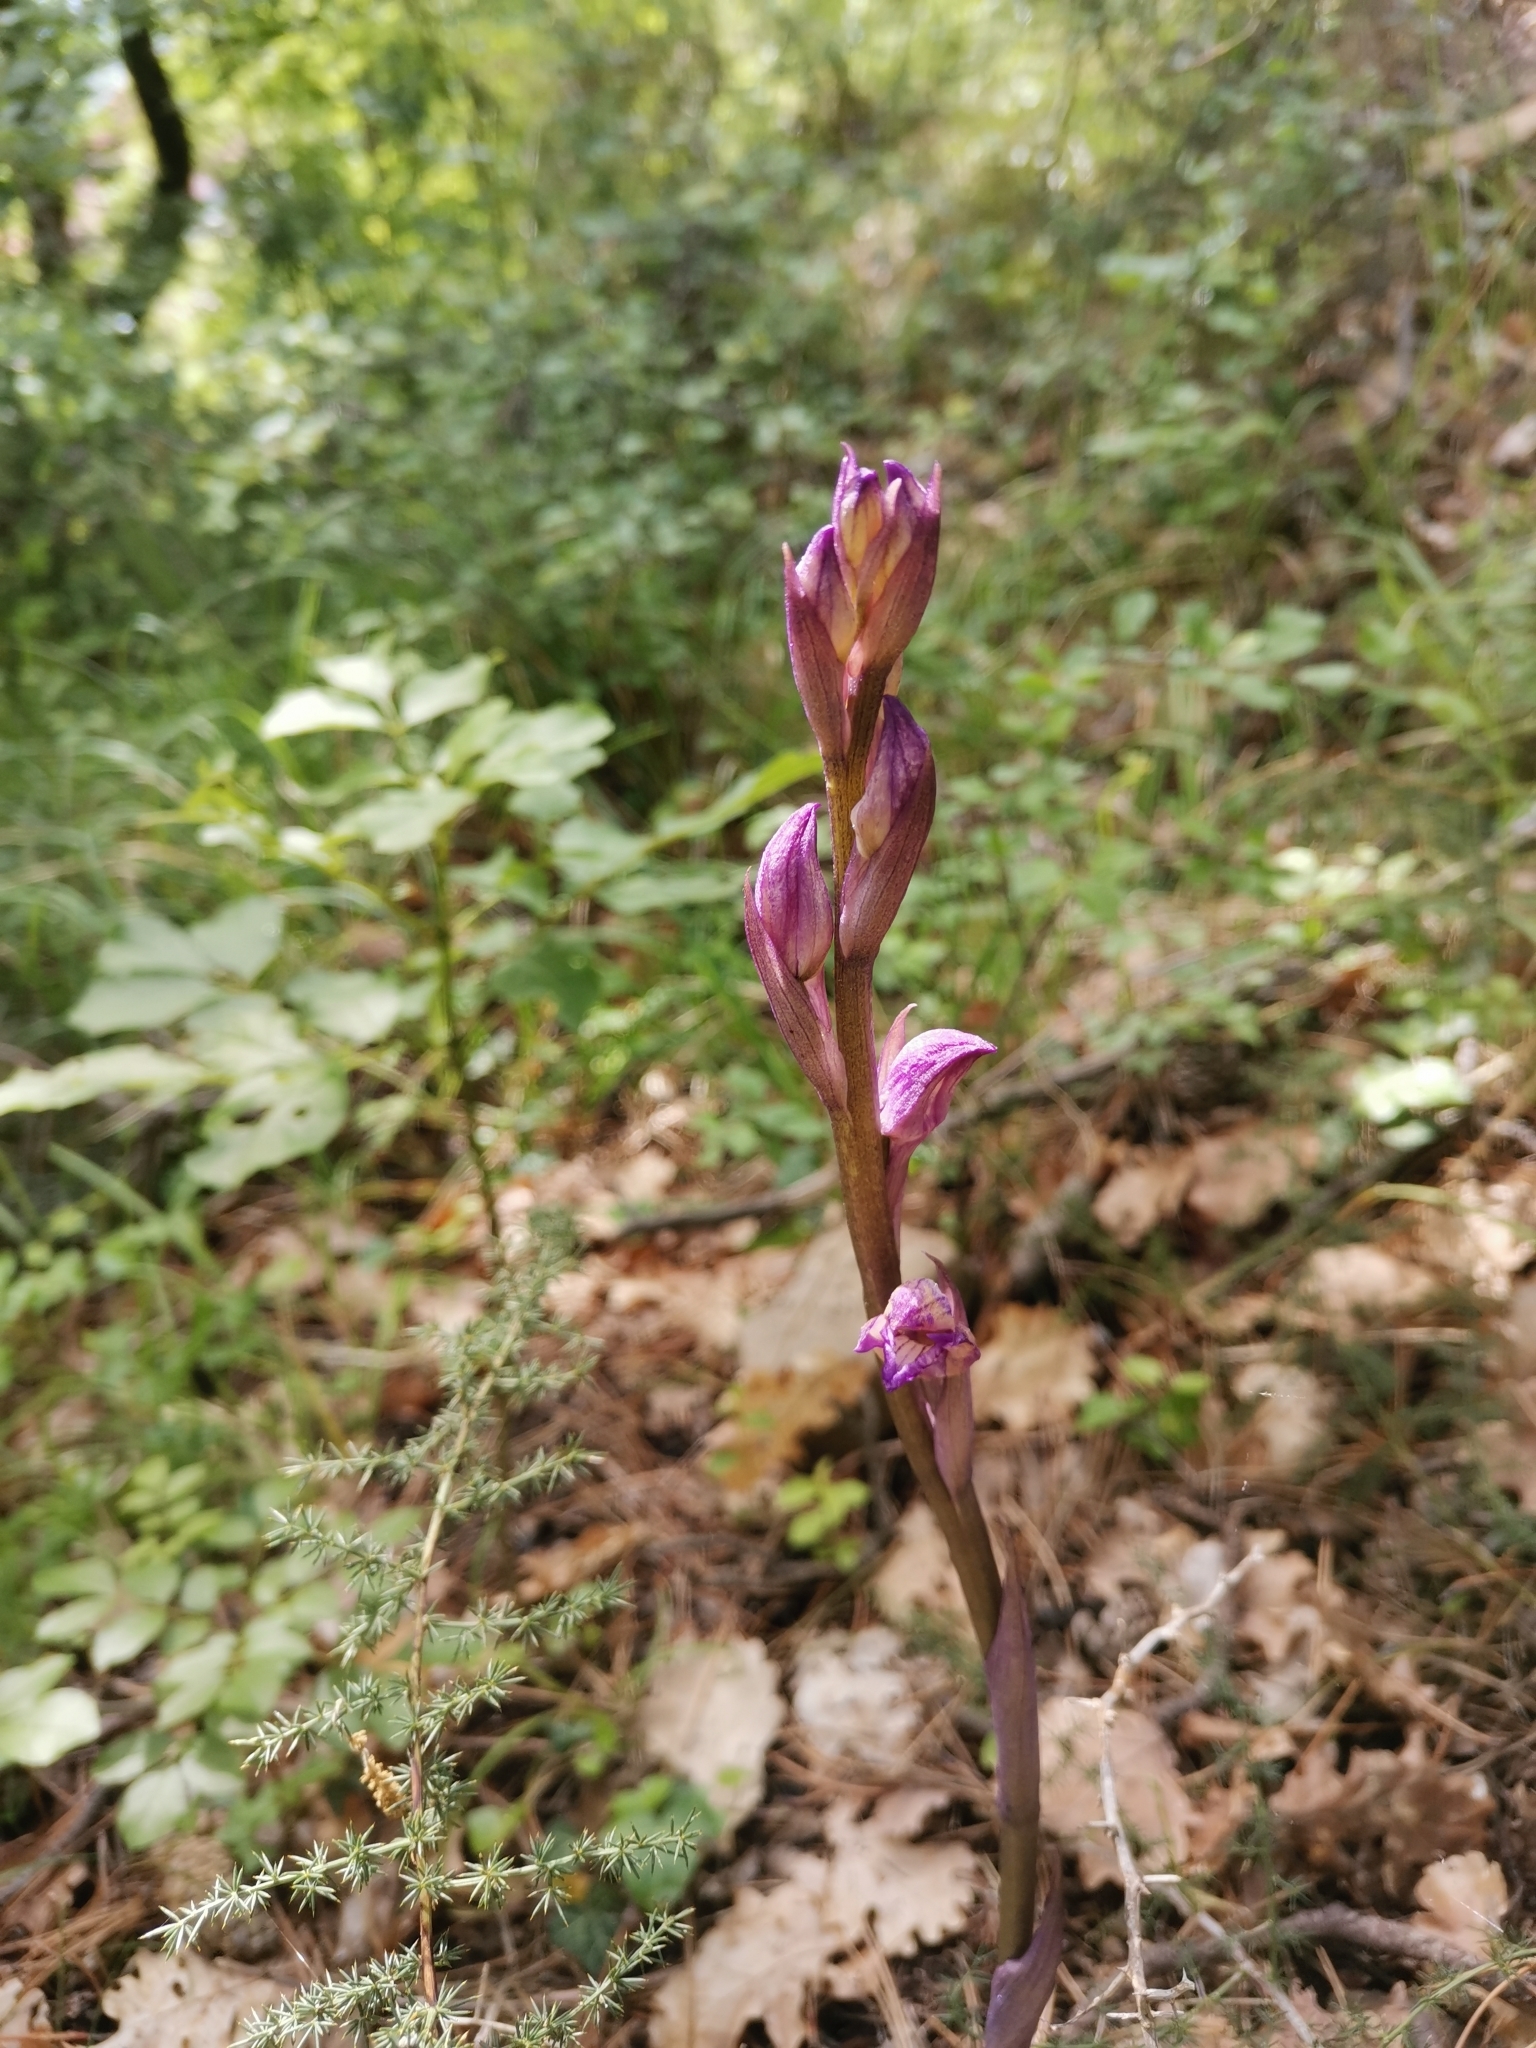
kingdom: Plantae
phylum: Tracheophyta
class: Liliopsida
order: Asparagales
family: Orchidaceae
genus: Limodorum
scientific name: Limodorum abortivum
